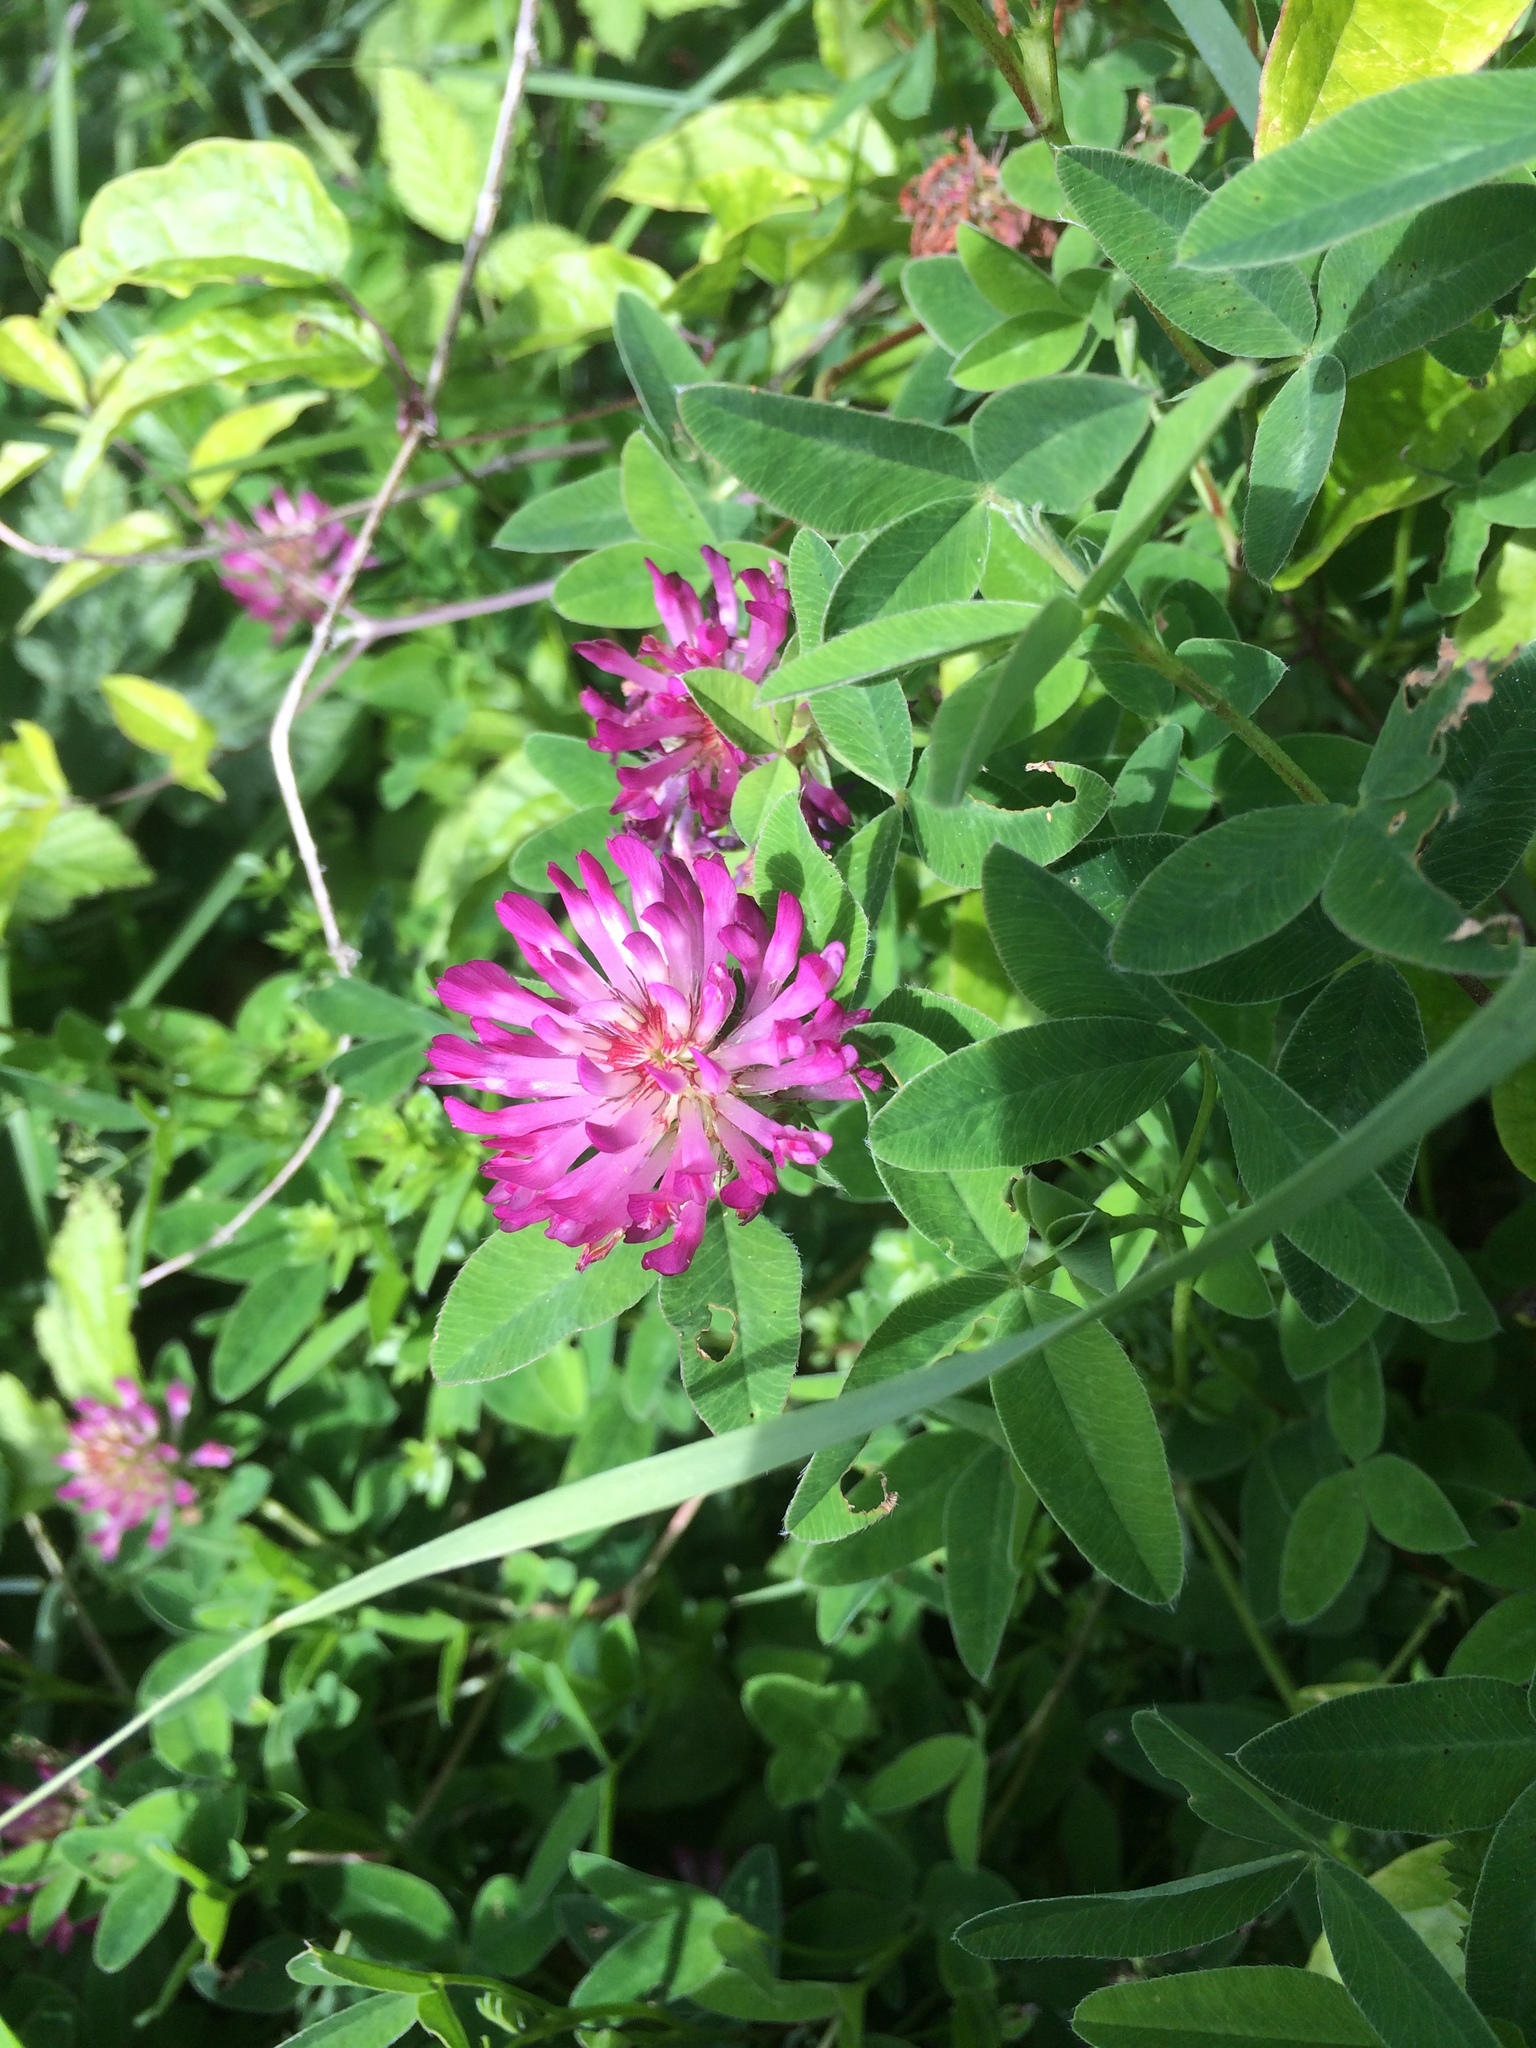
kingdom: Plantae
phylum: Tracheophyta
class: Magnoliopsida
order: Fabales
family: Fabaceae
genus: Trifolium
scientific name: Trifolium medium
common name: Zigzag clover
